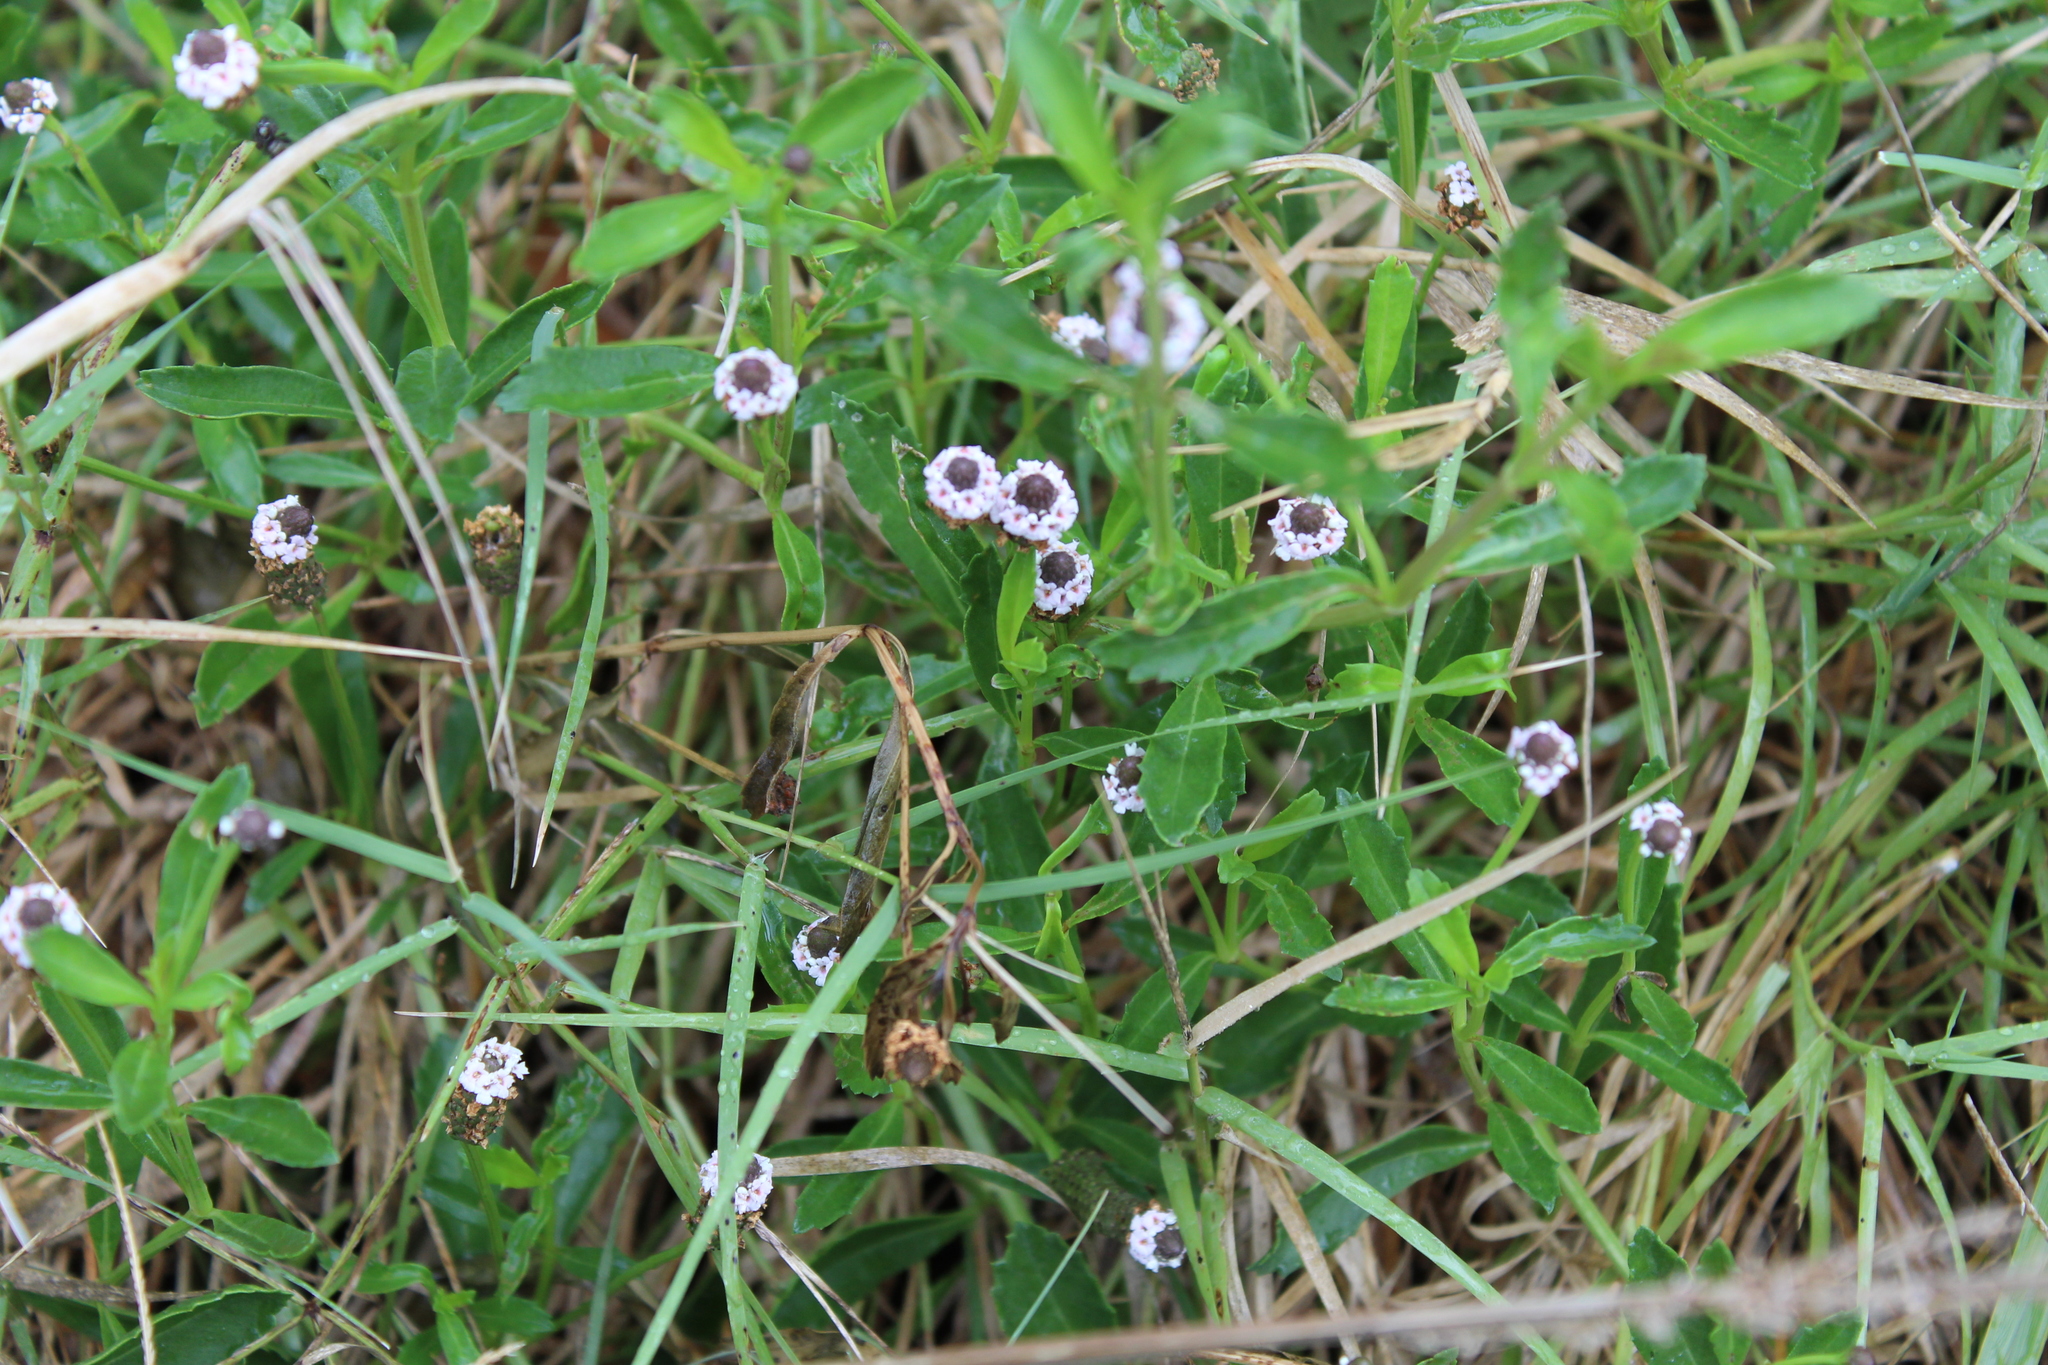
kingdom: Plantae
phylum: Tracheophyta
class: Magnoliopsida
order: Lamiales
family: Verbenaceae
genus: Phyla
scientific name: Phyla nodiflora
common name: Frogfruit
